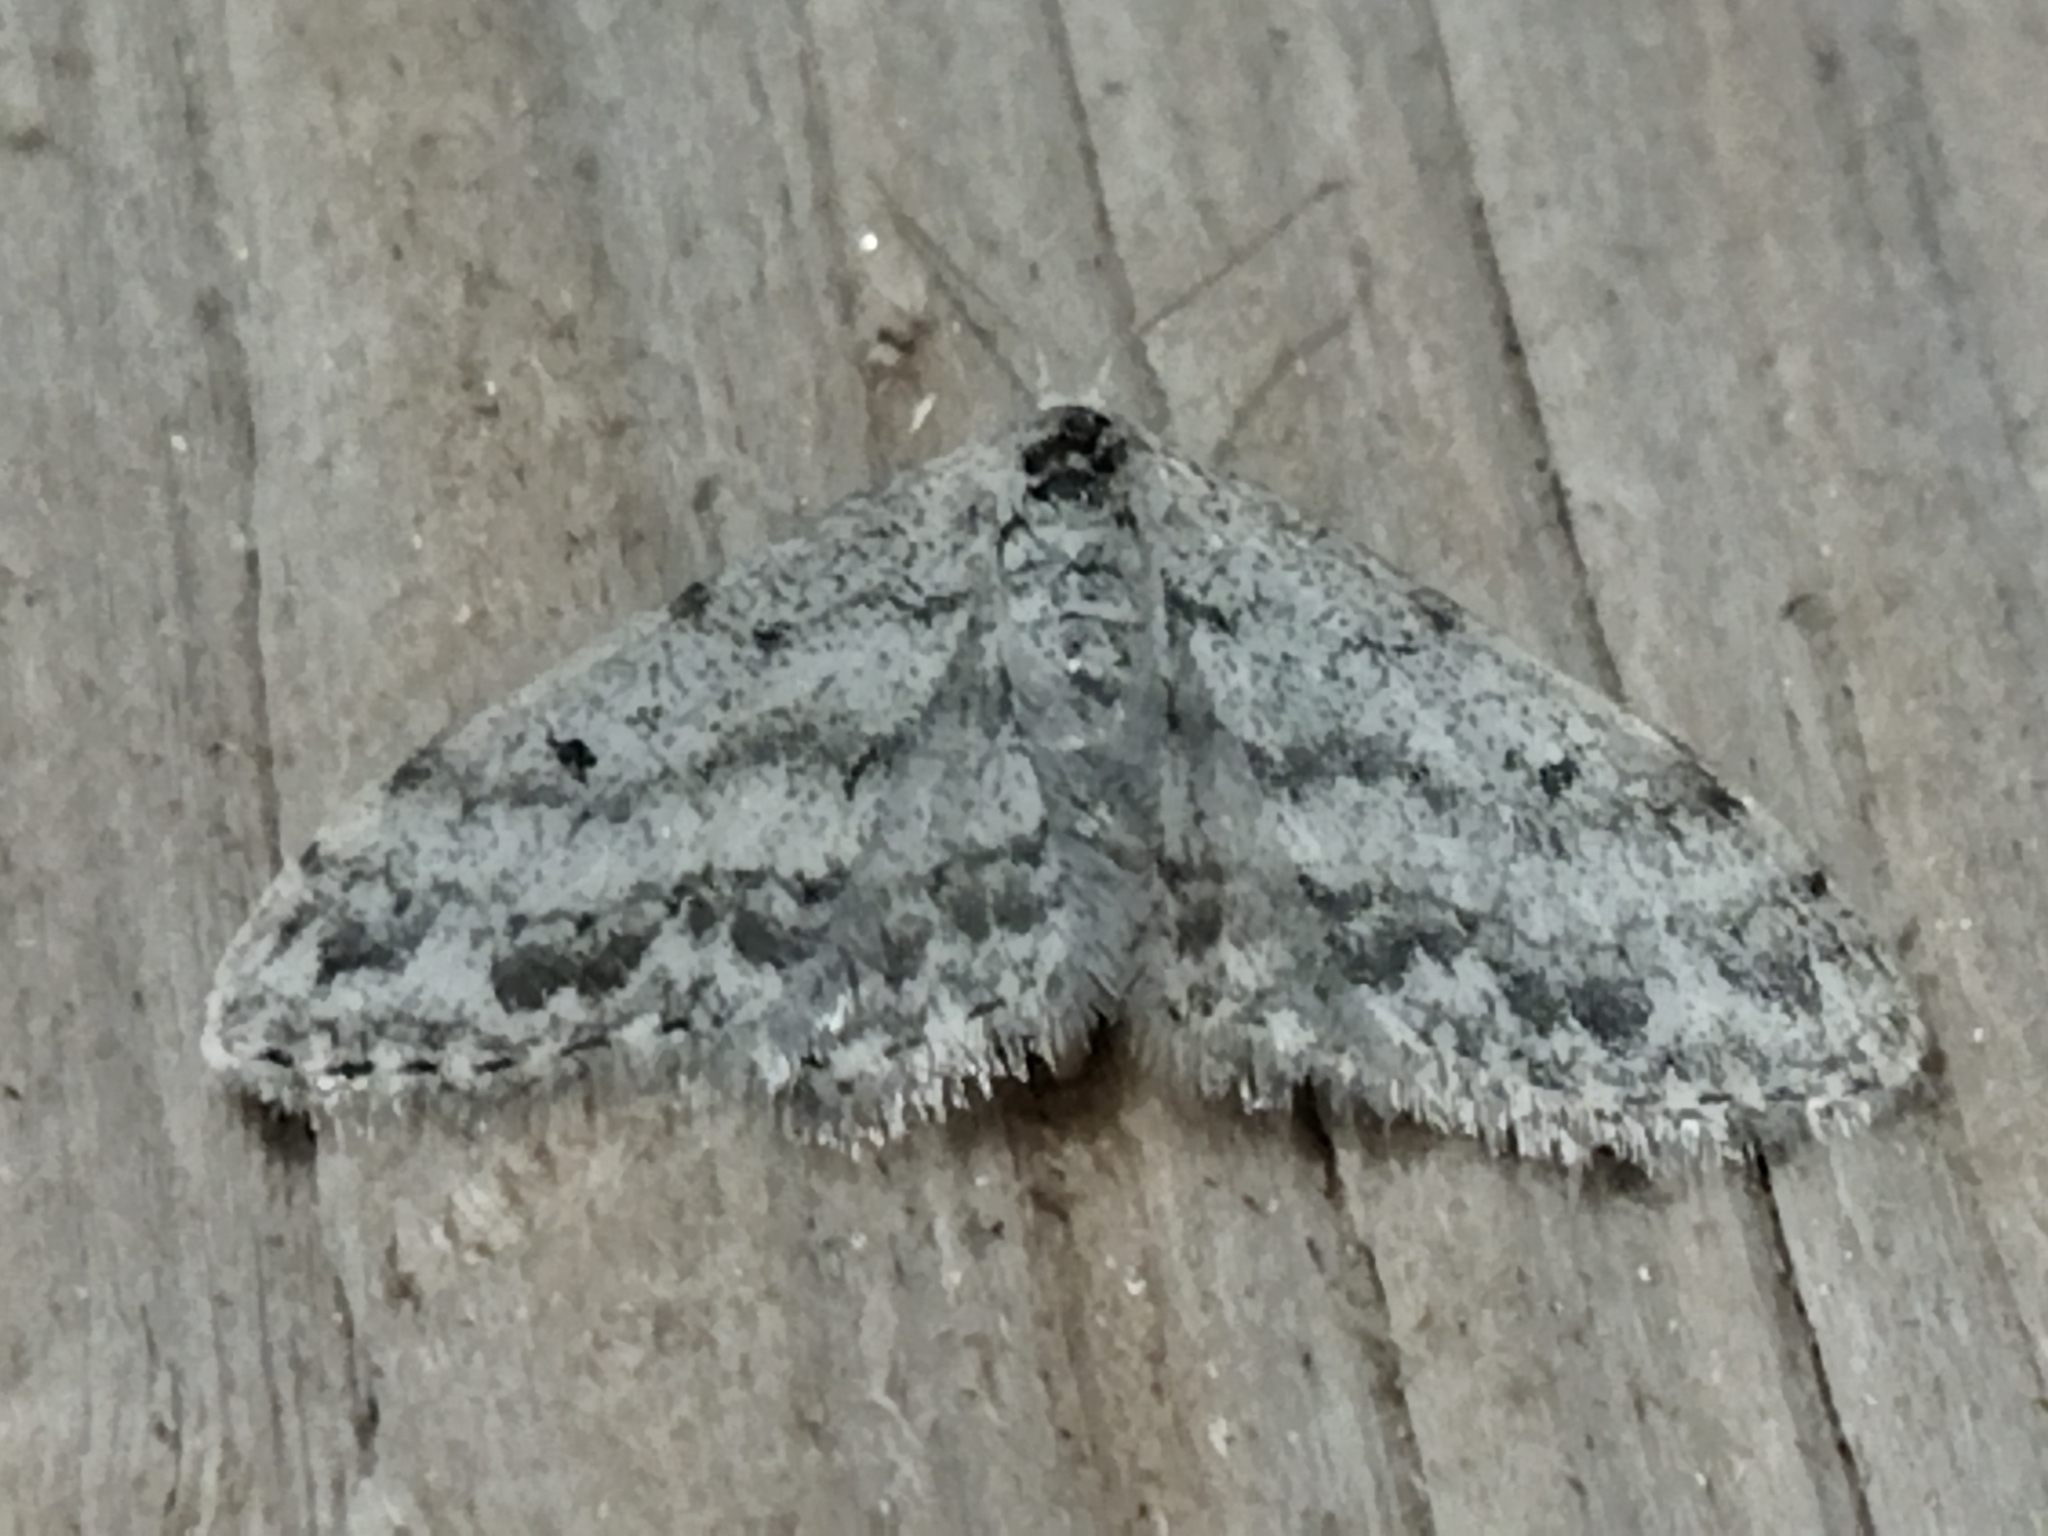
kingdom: Animalia
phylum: Arthropoda
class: Insecta
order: Lepidoptera
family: Geometridae
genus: Idaea
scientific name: Idaea camparia
